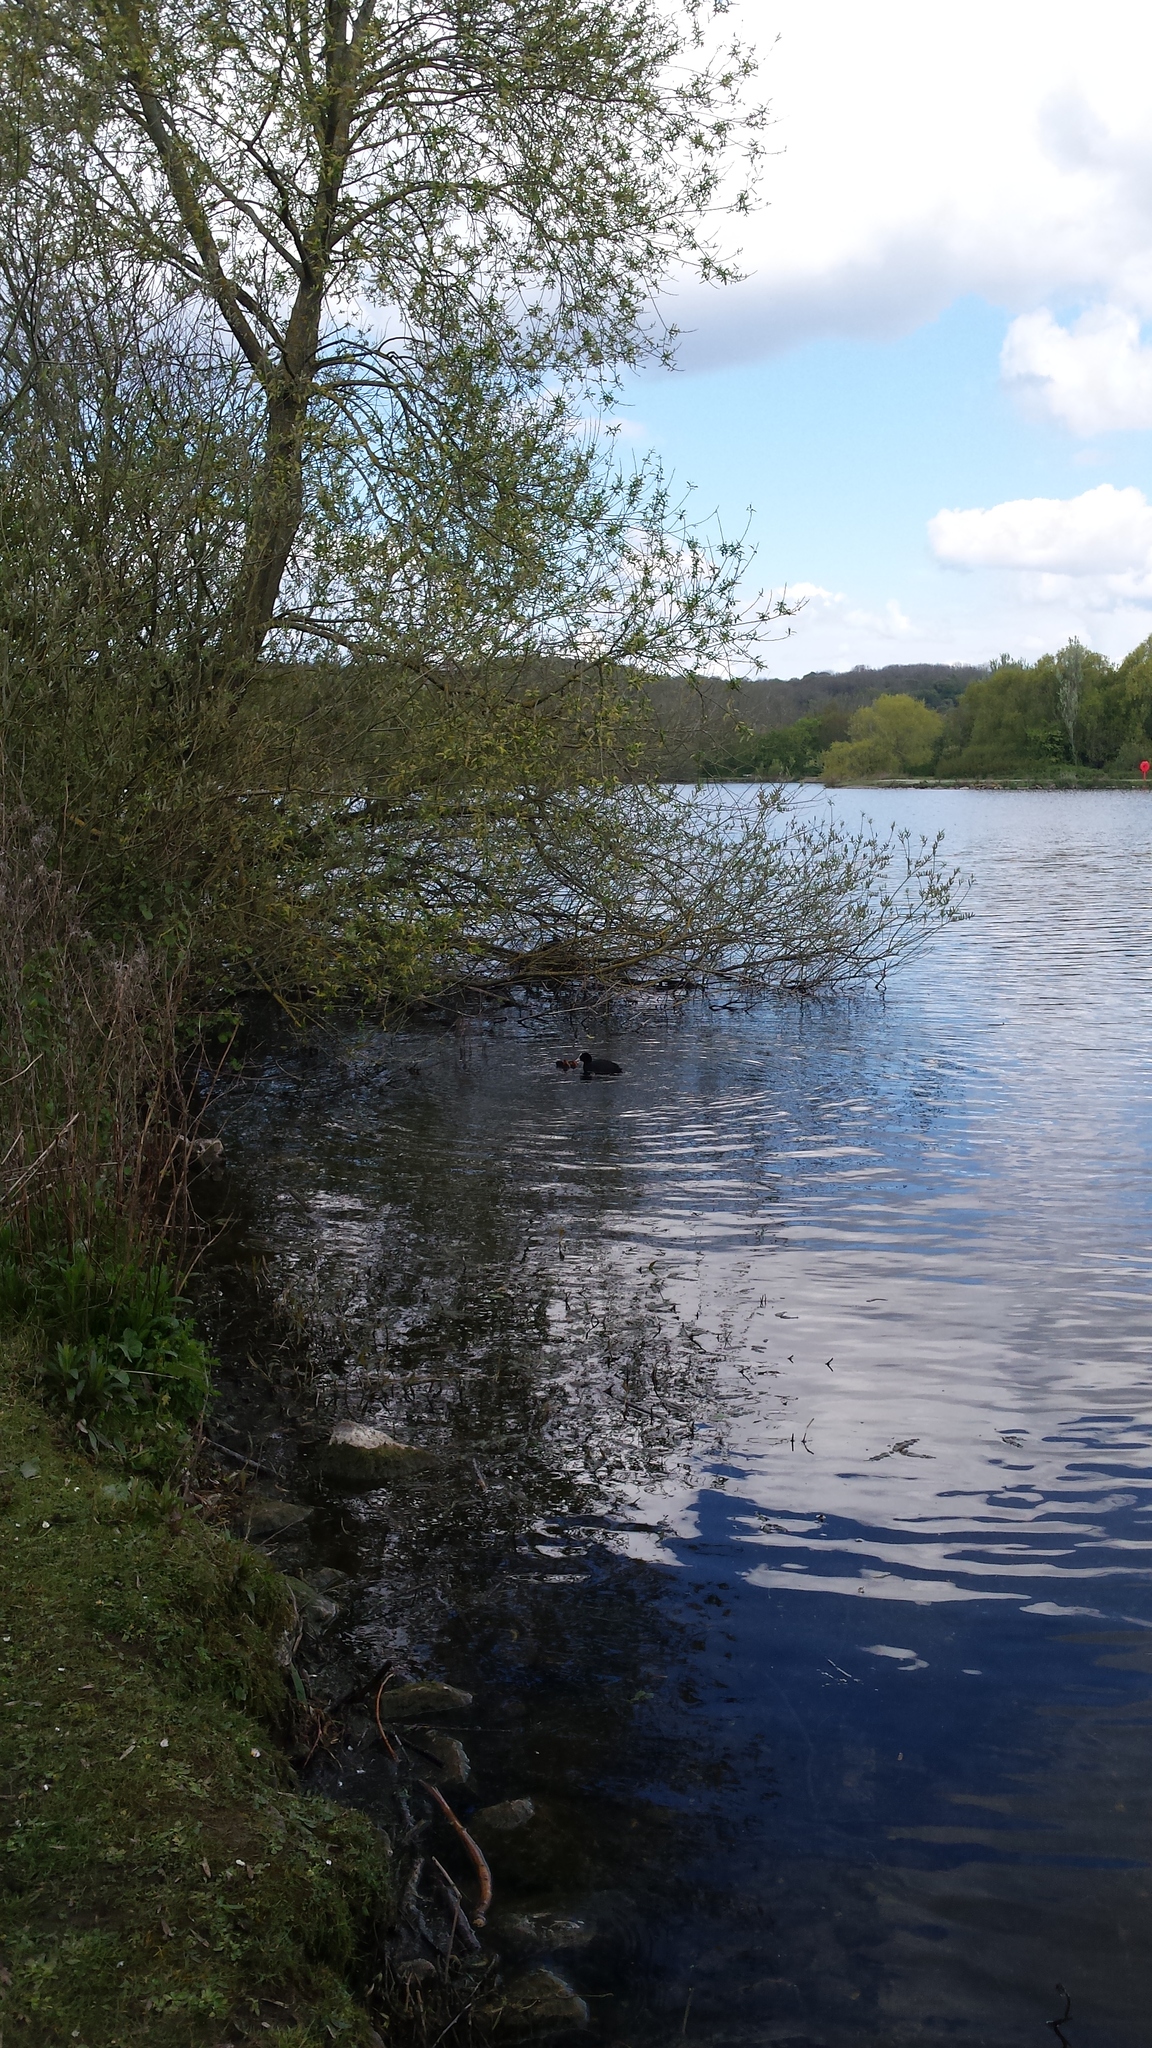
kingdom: Animalia
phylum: Chordata
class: Aves
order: Gruiformes
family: Rallidae
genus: Fulica
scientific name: Fulica atra
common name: Eurasian coot
